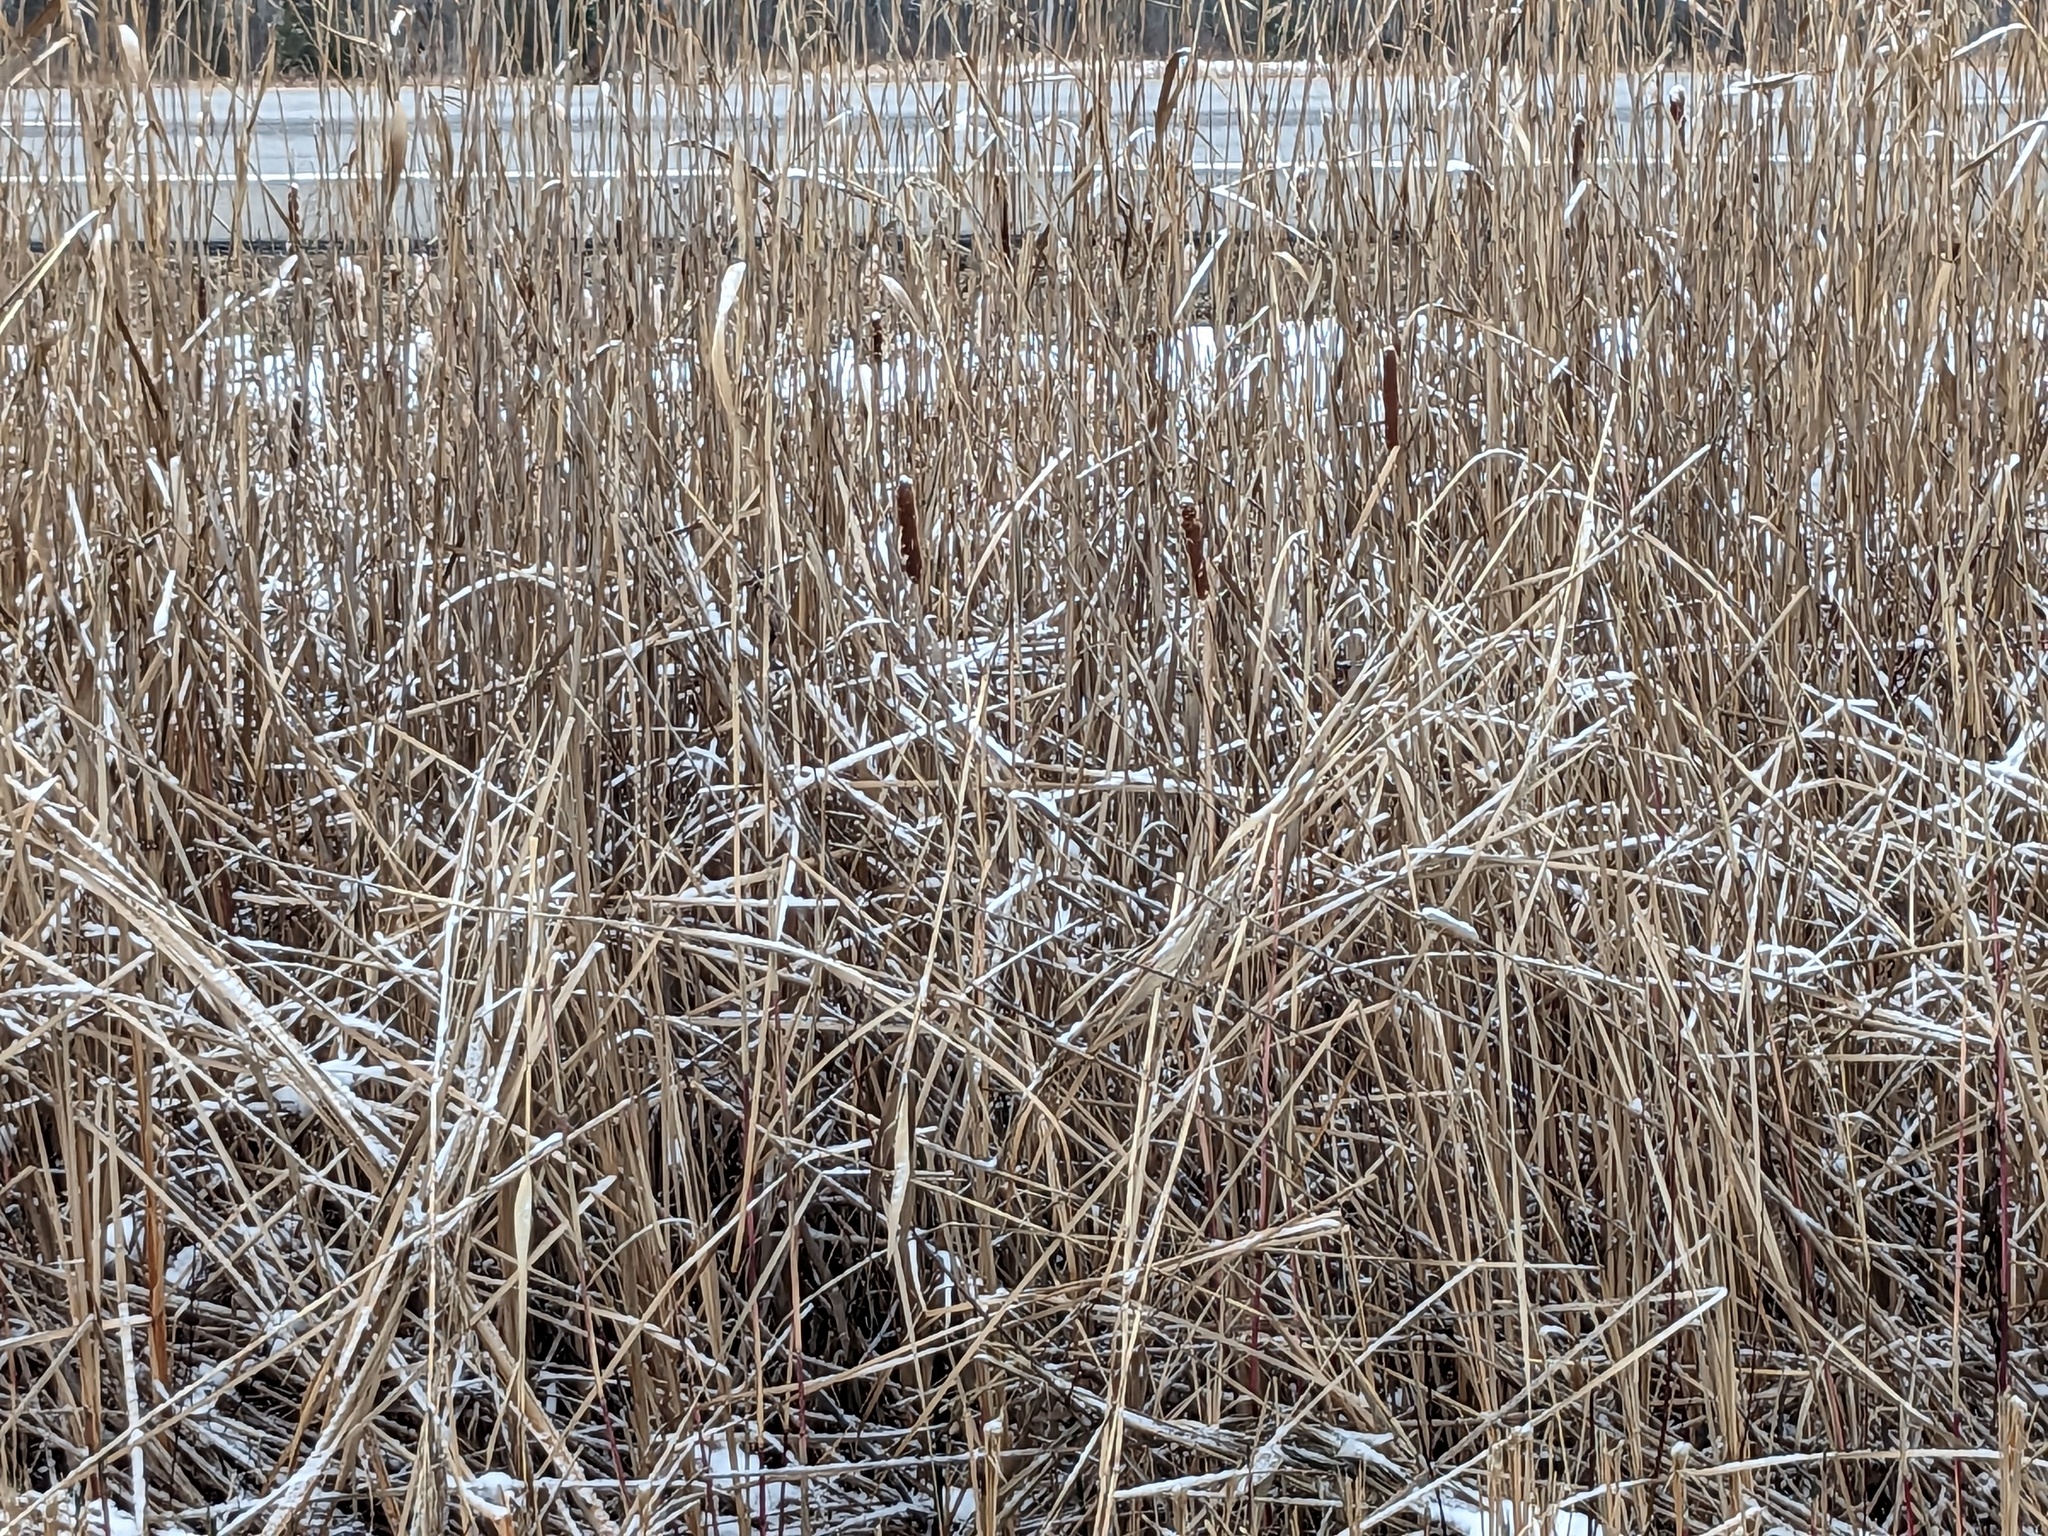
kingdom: Plantae
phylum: Tracheophyta
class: Liliopsida
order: Poales
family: Poaceae
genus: Phragmites
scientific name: Phragmites australis
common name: Common reed
